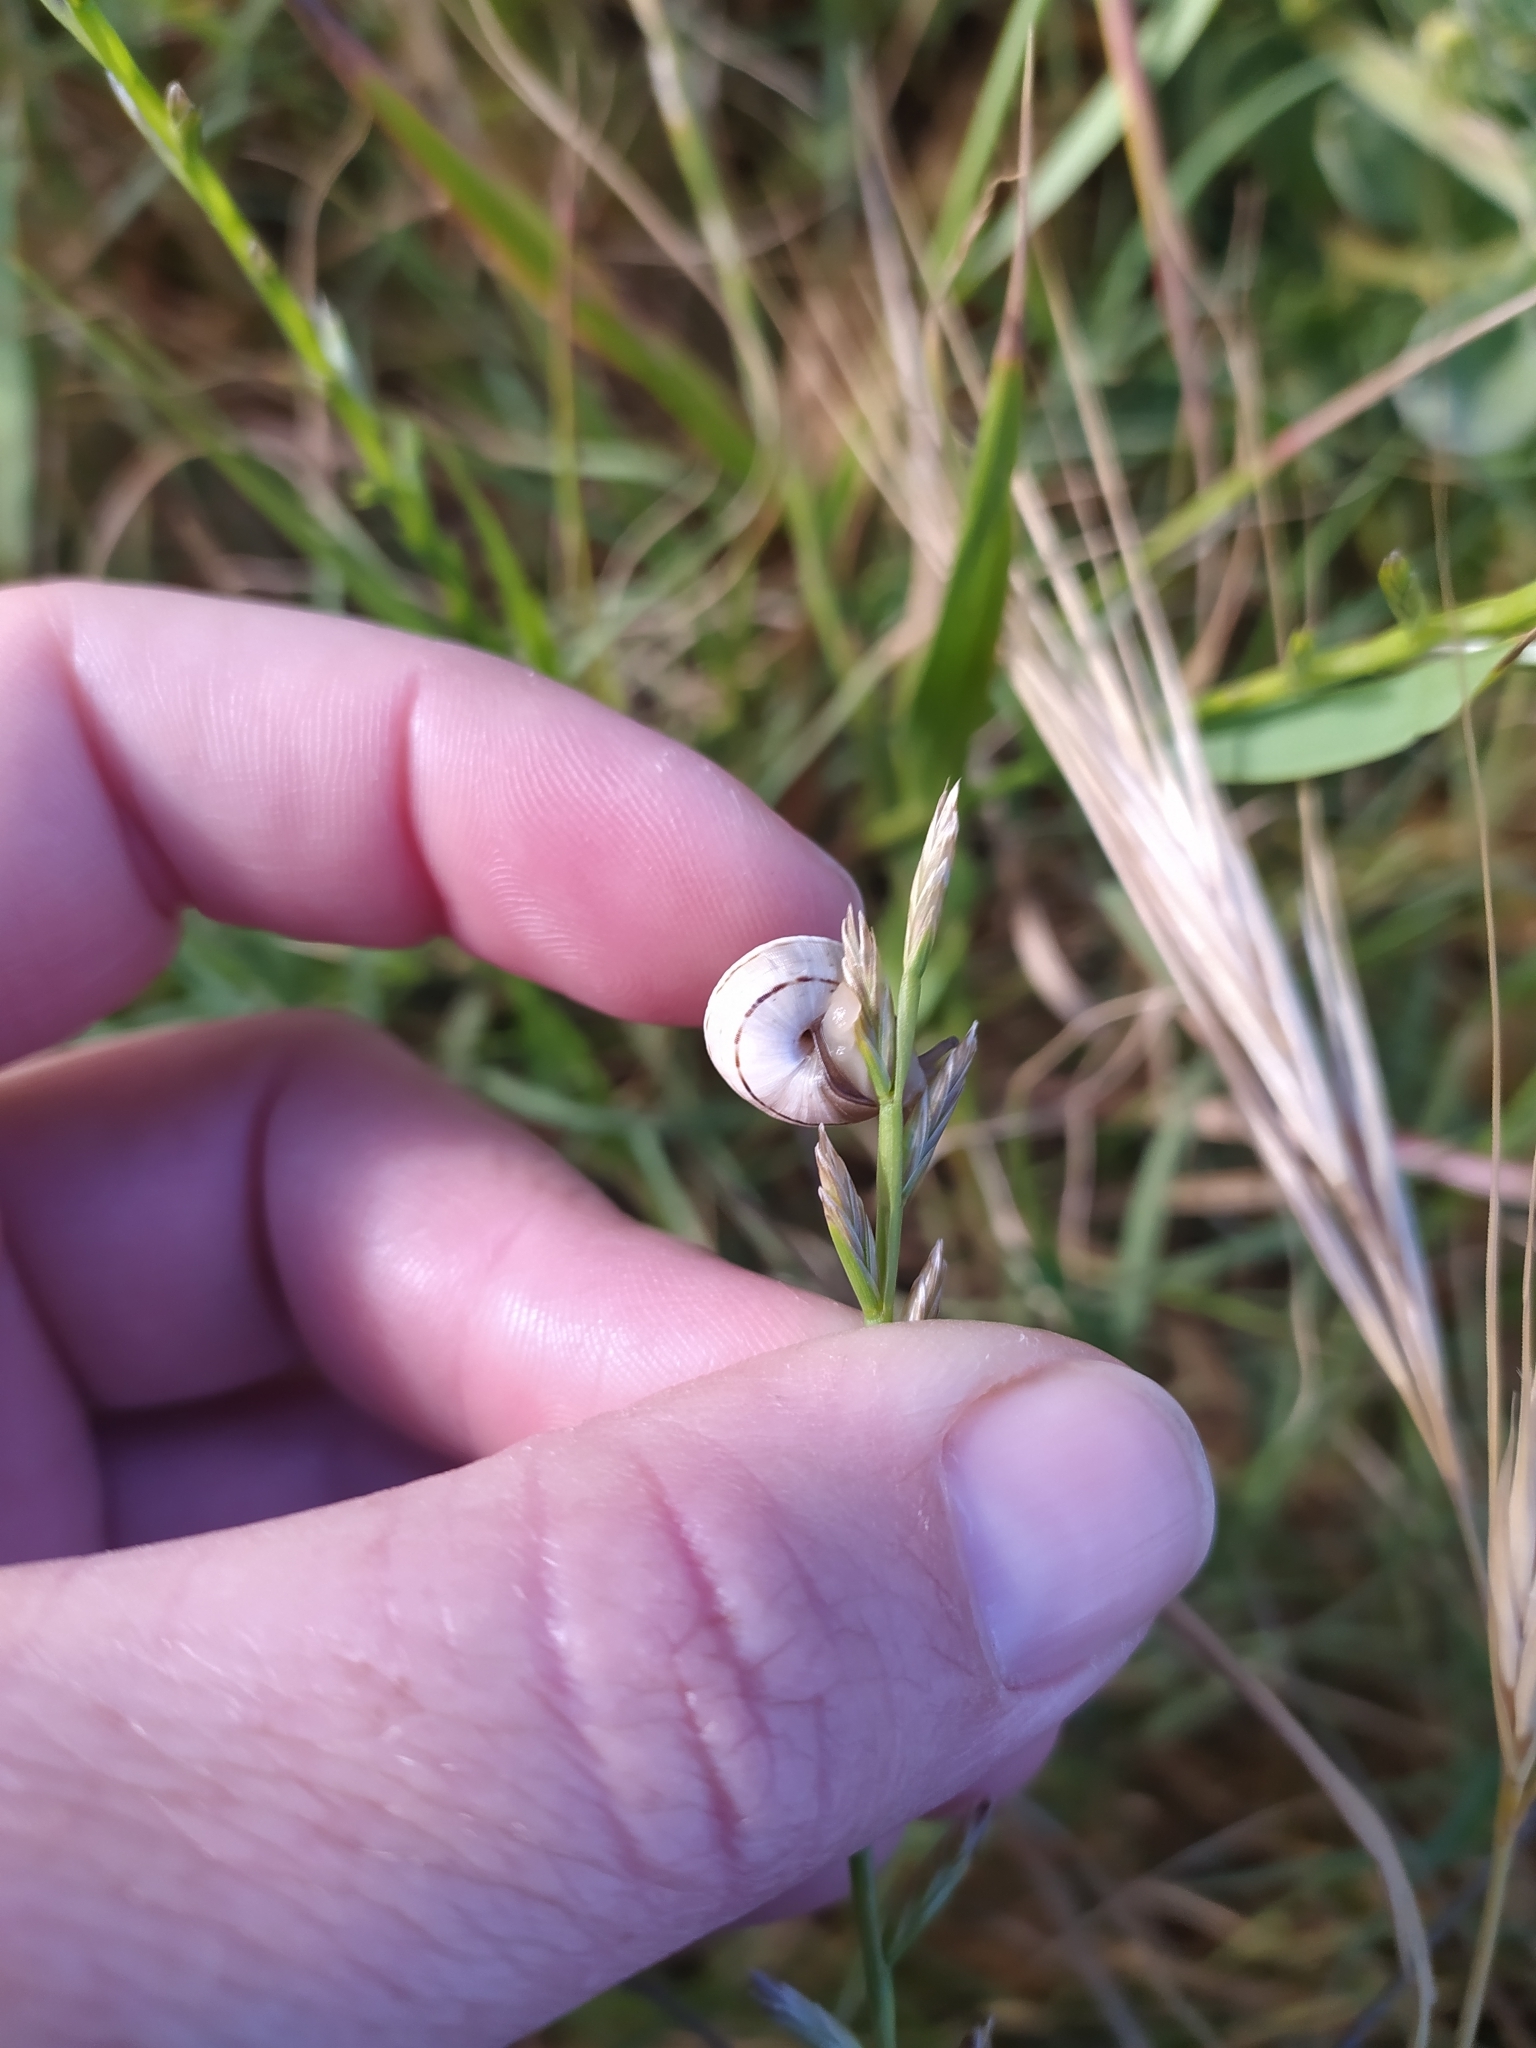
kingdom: Animalia
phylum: Mollusca
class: Gastropoda
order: Stylommatophora
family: Helicidae
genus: Theba
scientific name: Theba pisana
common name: White snail
